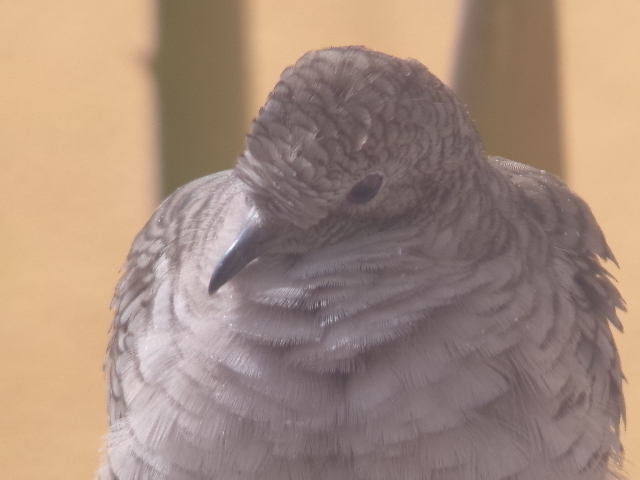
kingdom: Animalia
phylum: Chordata
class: Aves
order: Columbiformes
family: Columbidae
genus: Columbina
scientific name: Columbina inca
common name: Inca dove
